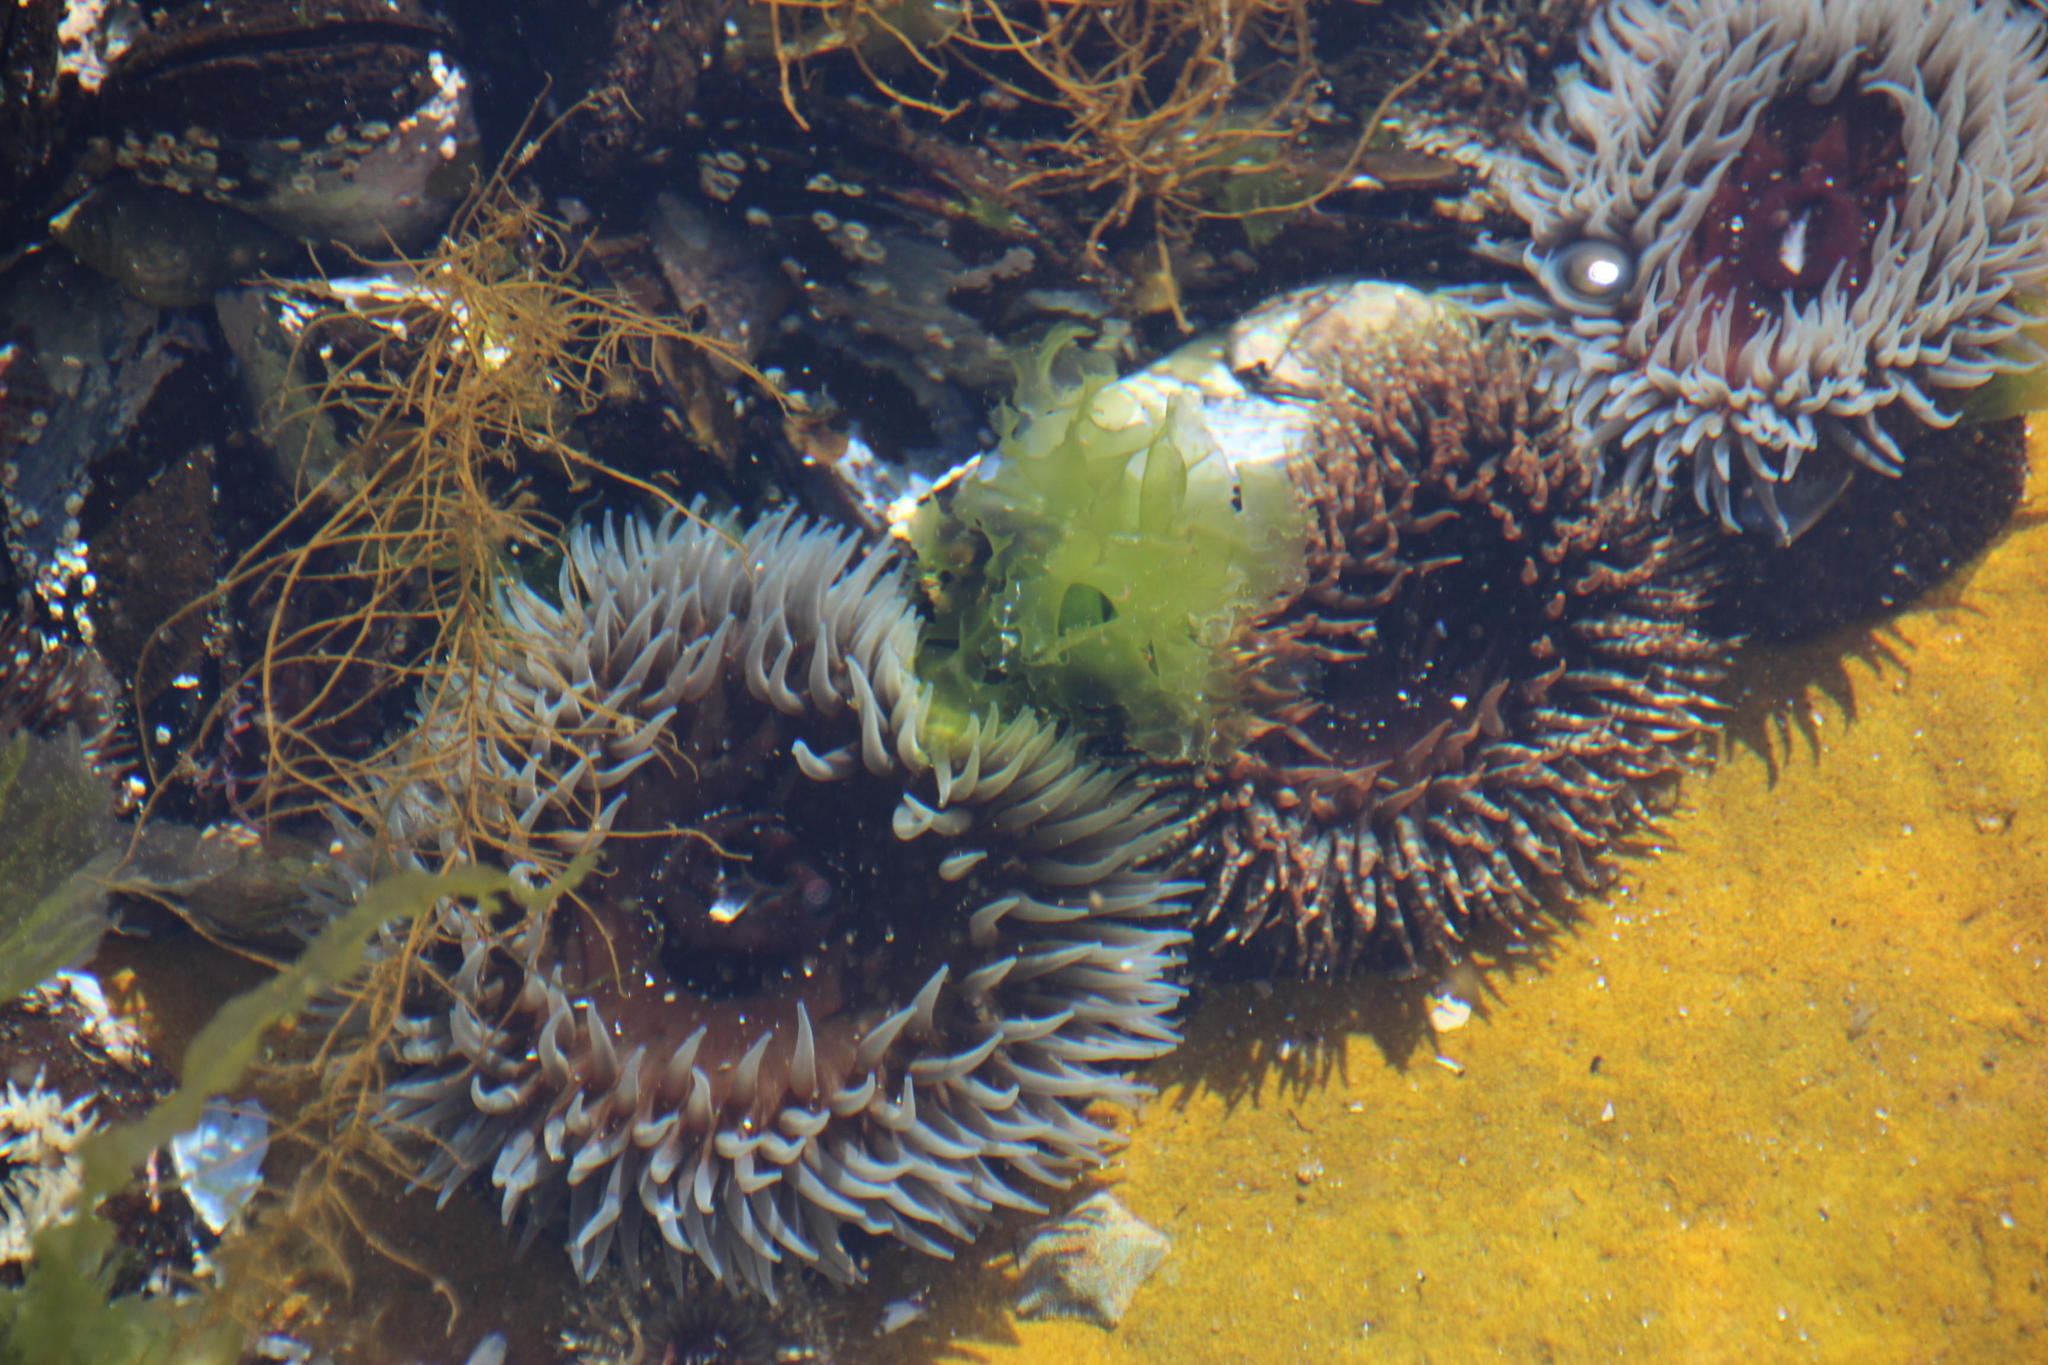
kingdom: Animalia
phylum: Cnidaria
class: Anthozoa
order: Actiniaria
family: Actiniidae
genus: Bunodactis
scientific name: Bunodactis reynaudi
